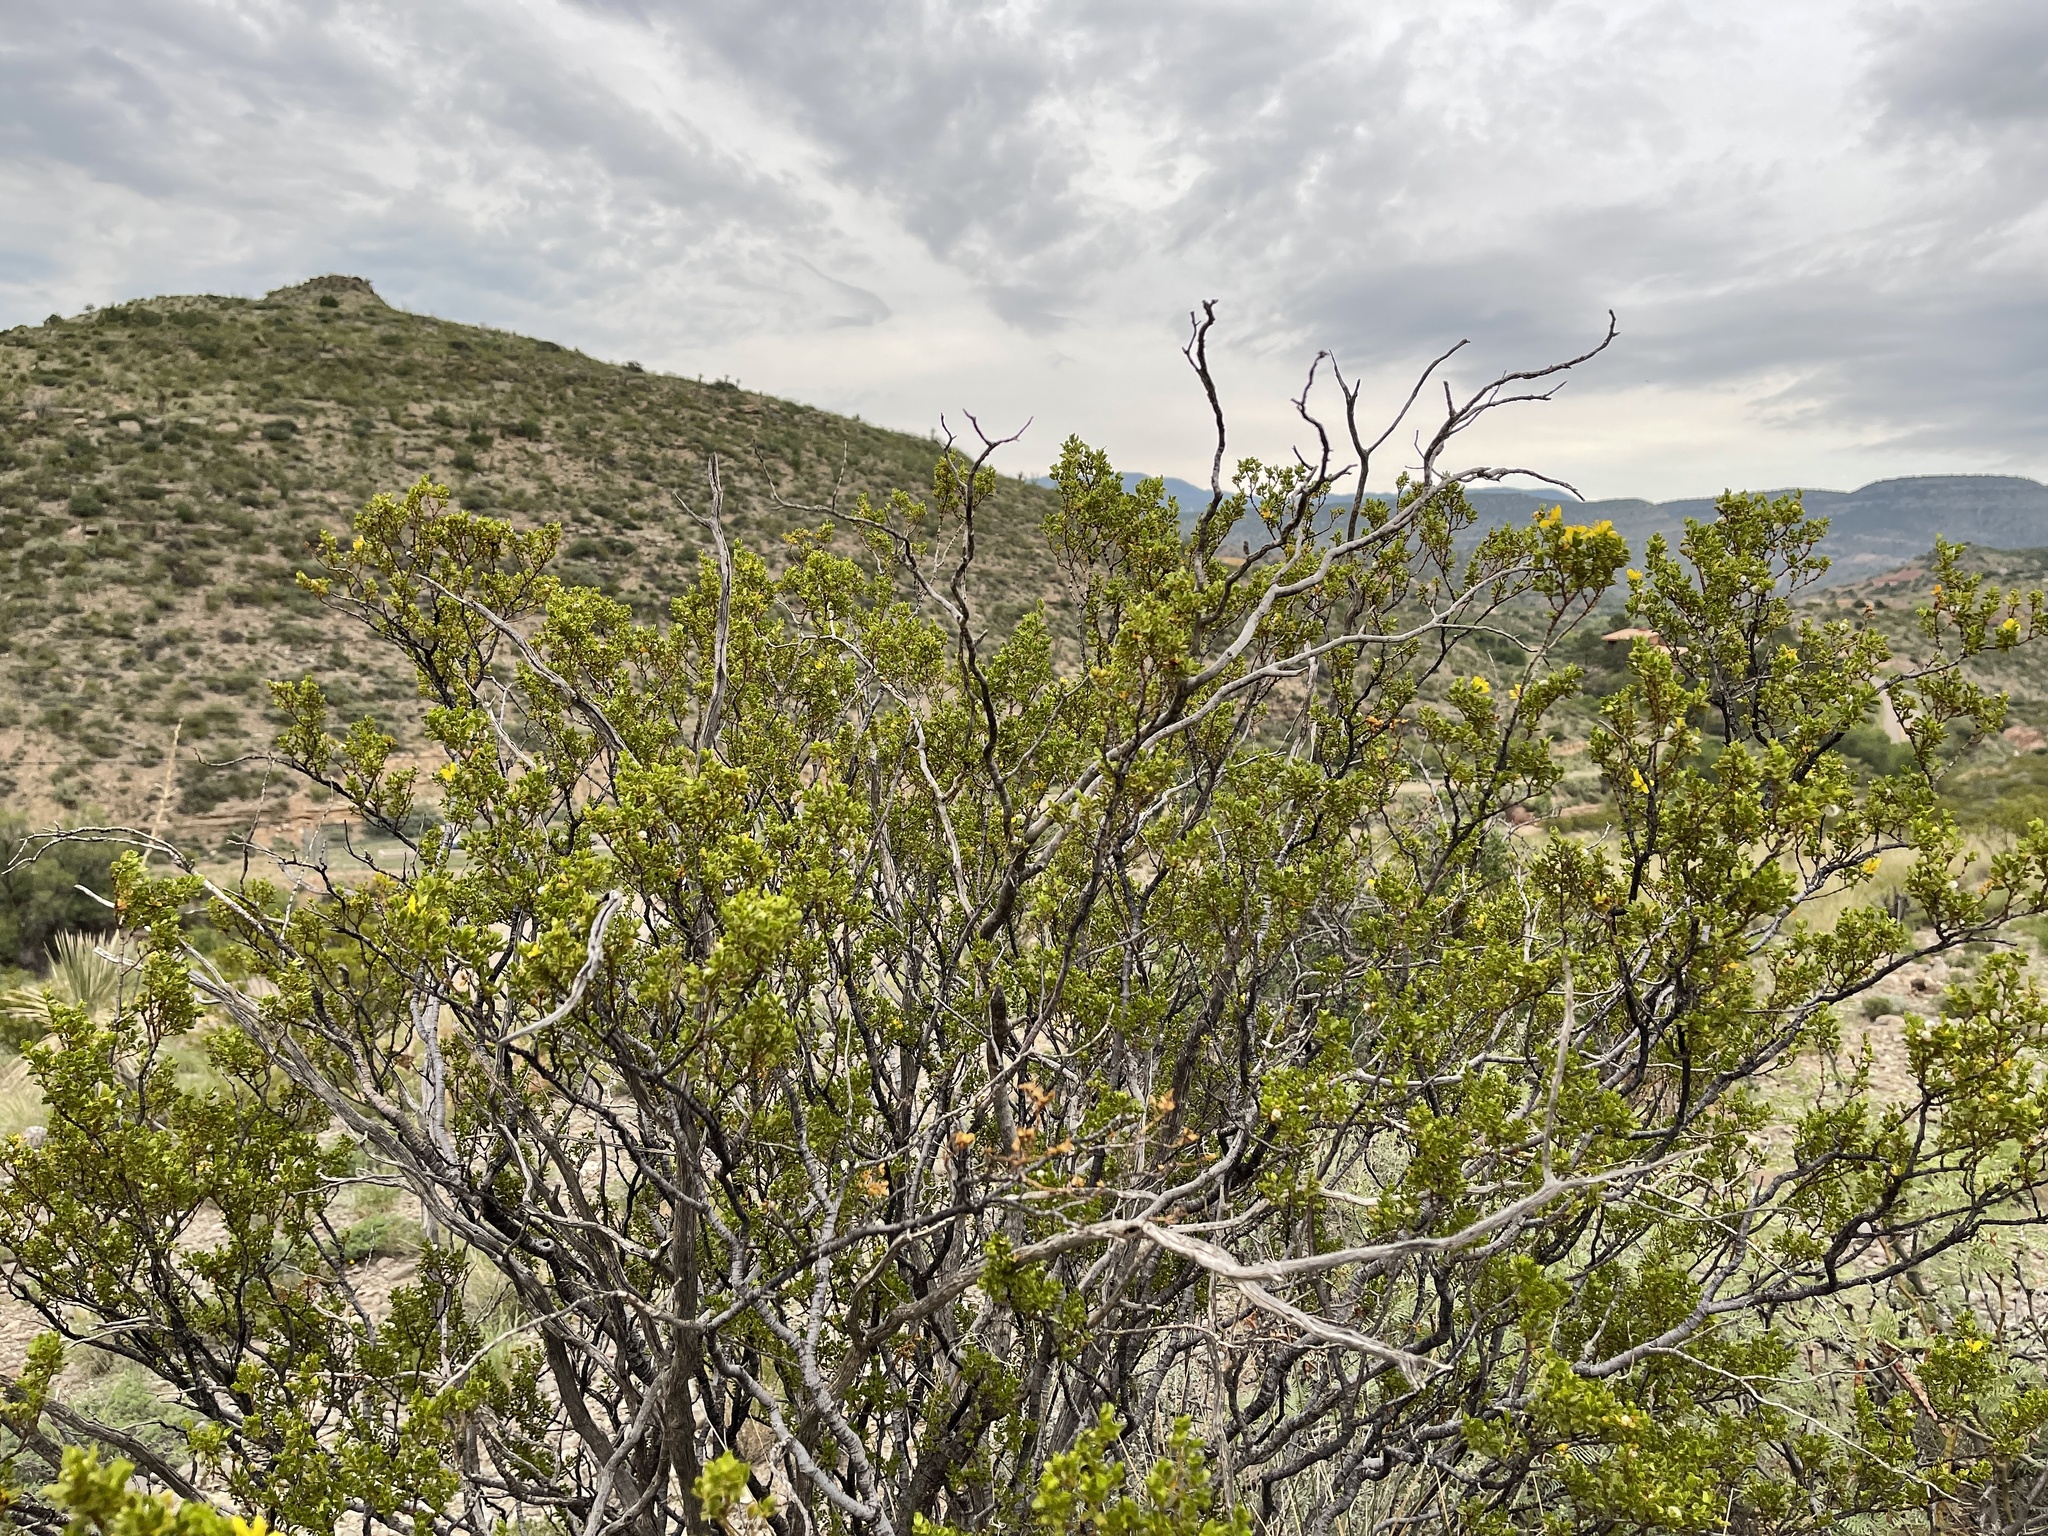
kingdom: Plantae
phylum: Tracheophyta
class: Magnoliopsida
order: Zygophyllales
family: Zygophyllaceae
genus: Larrea
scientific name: Larrea tridentata
